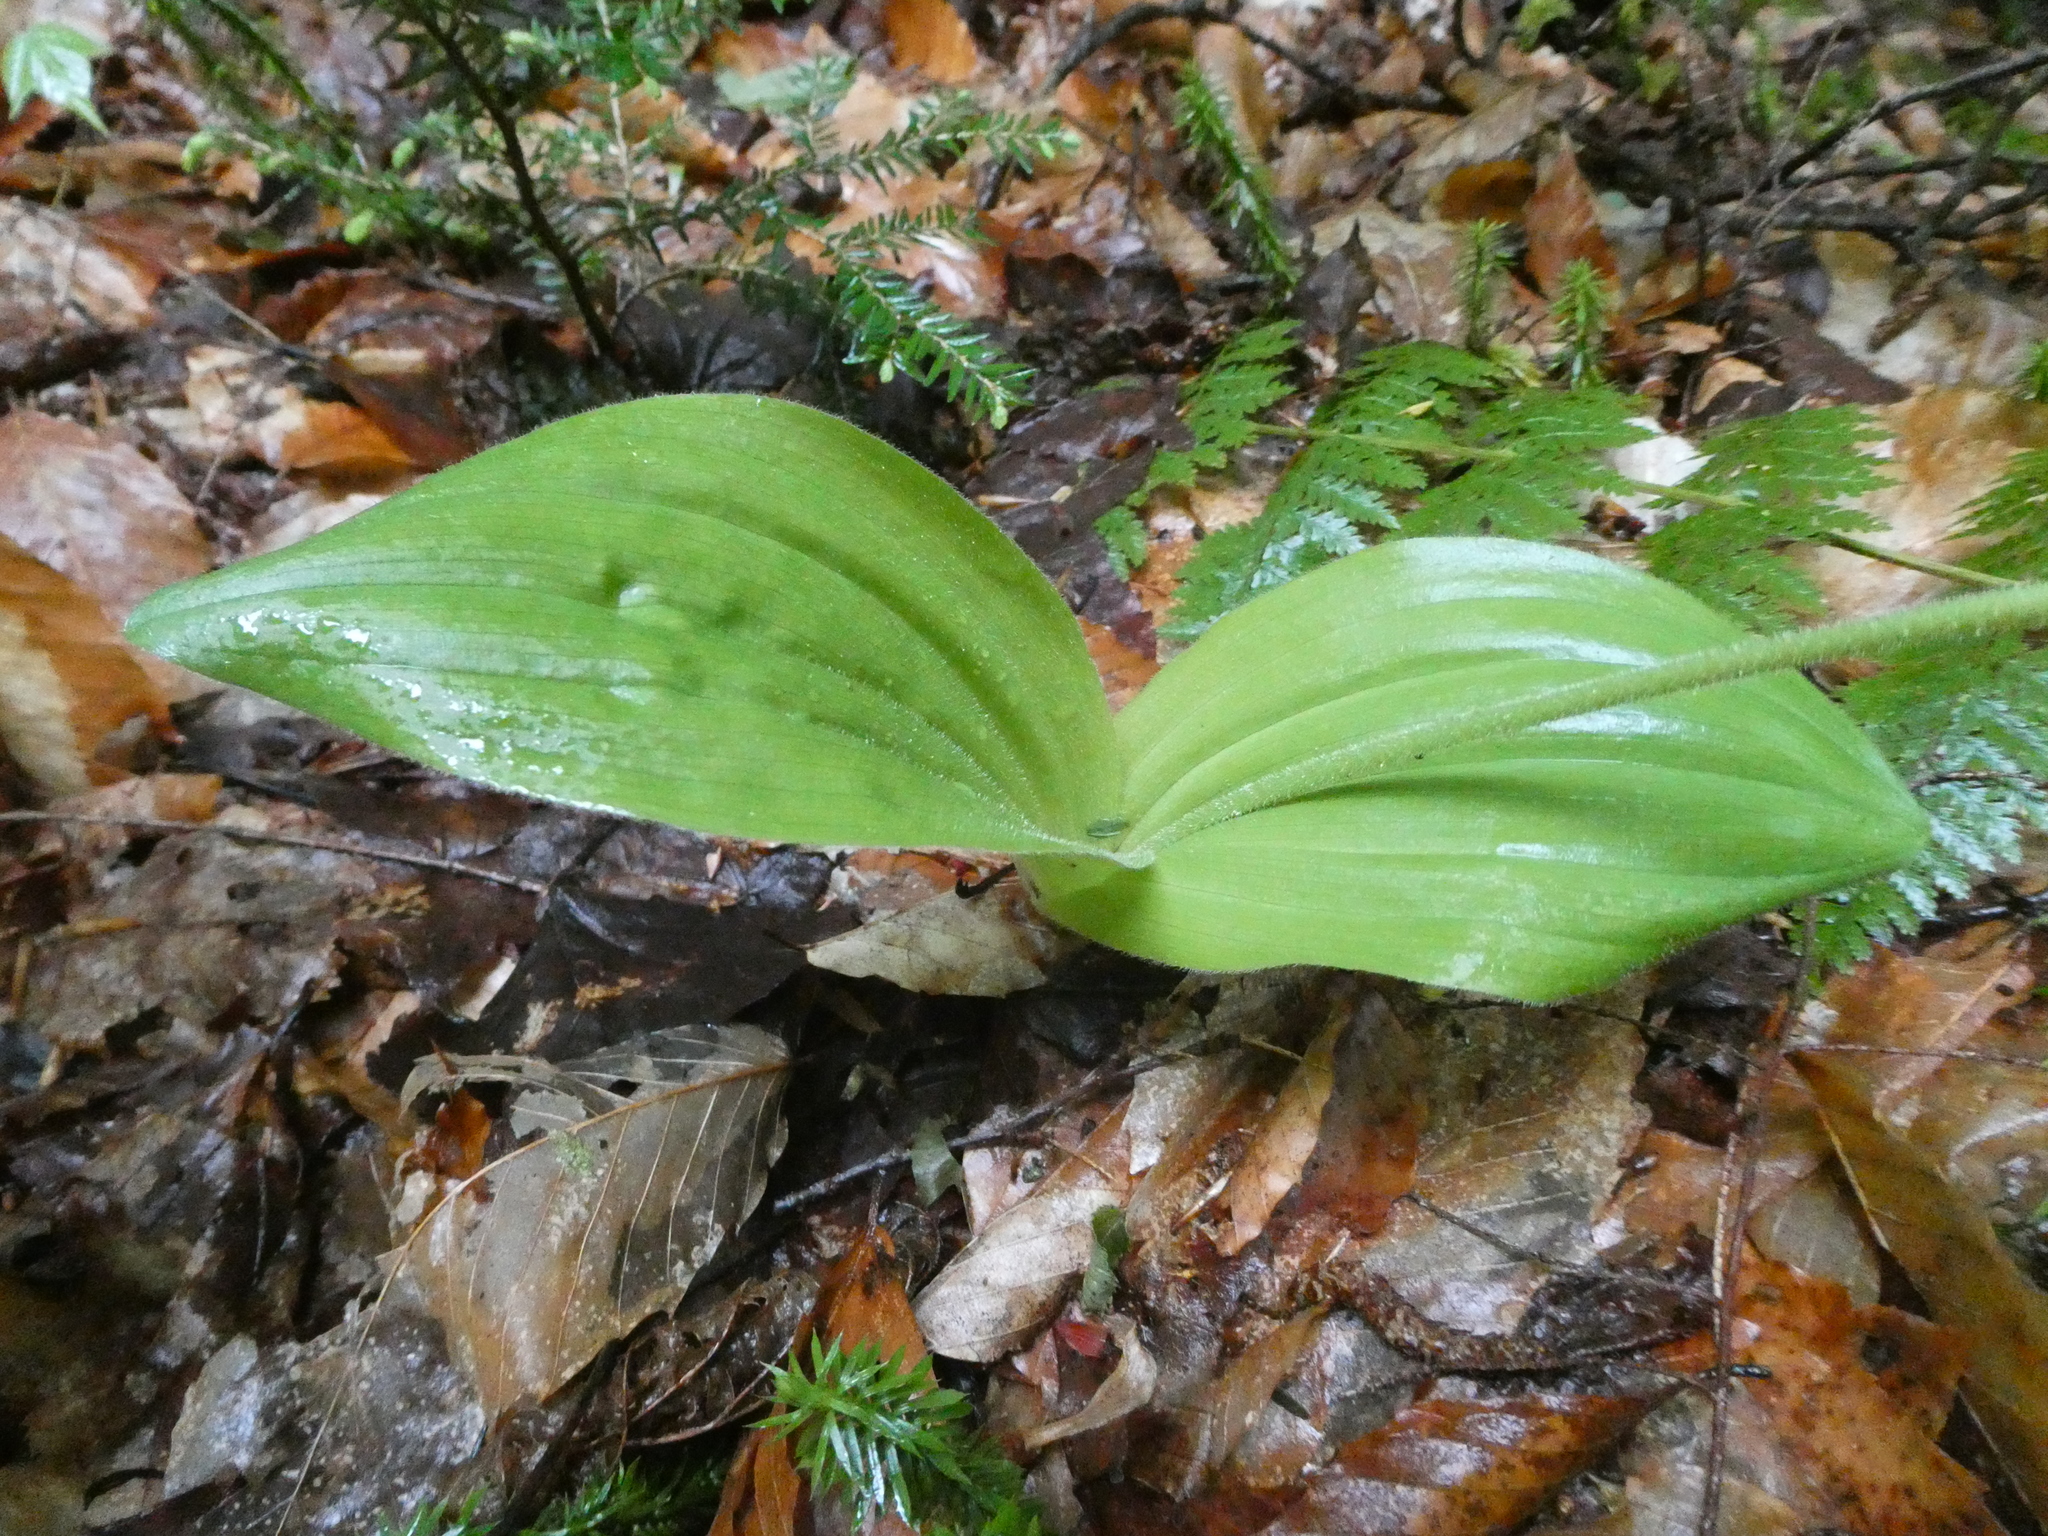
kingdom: Plantae
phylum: Tracheophyta
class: Liliopsida
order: Asparagales
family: Orchidaceae
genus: Cypripedium
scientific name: Cypripedium acaule
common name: Pink lady's-slipper
